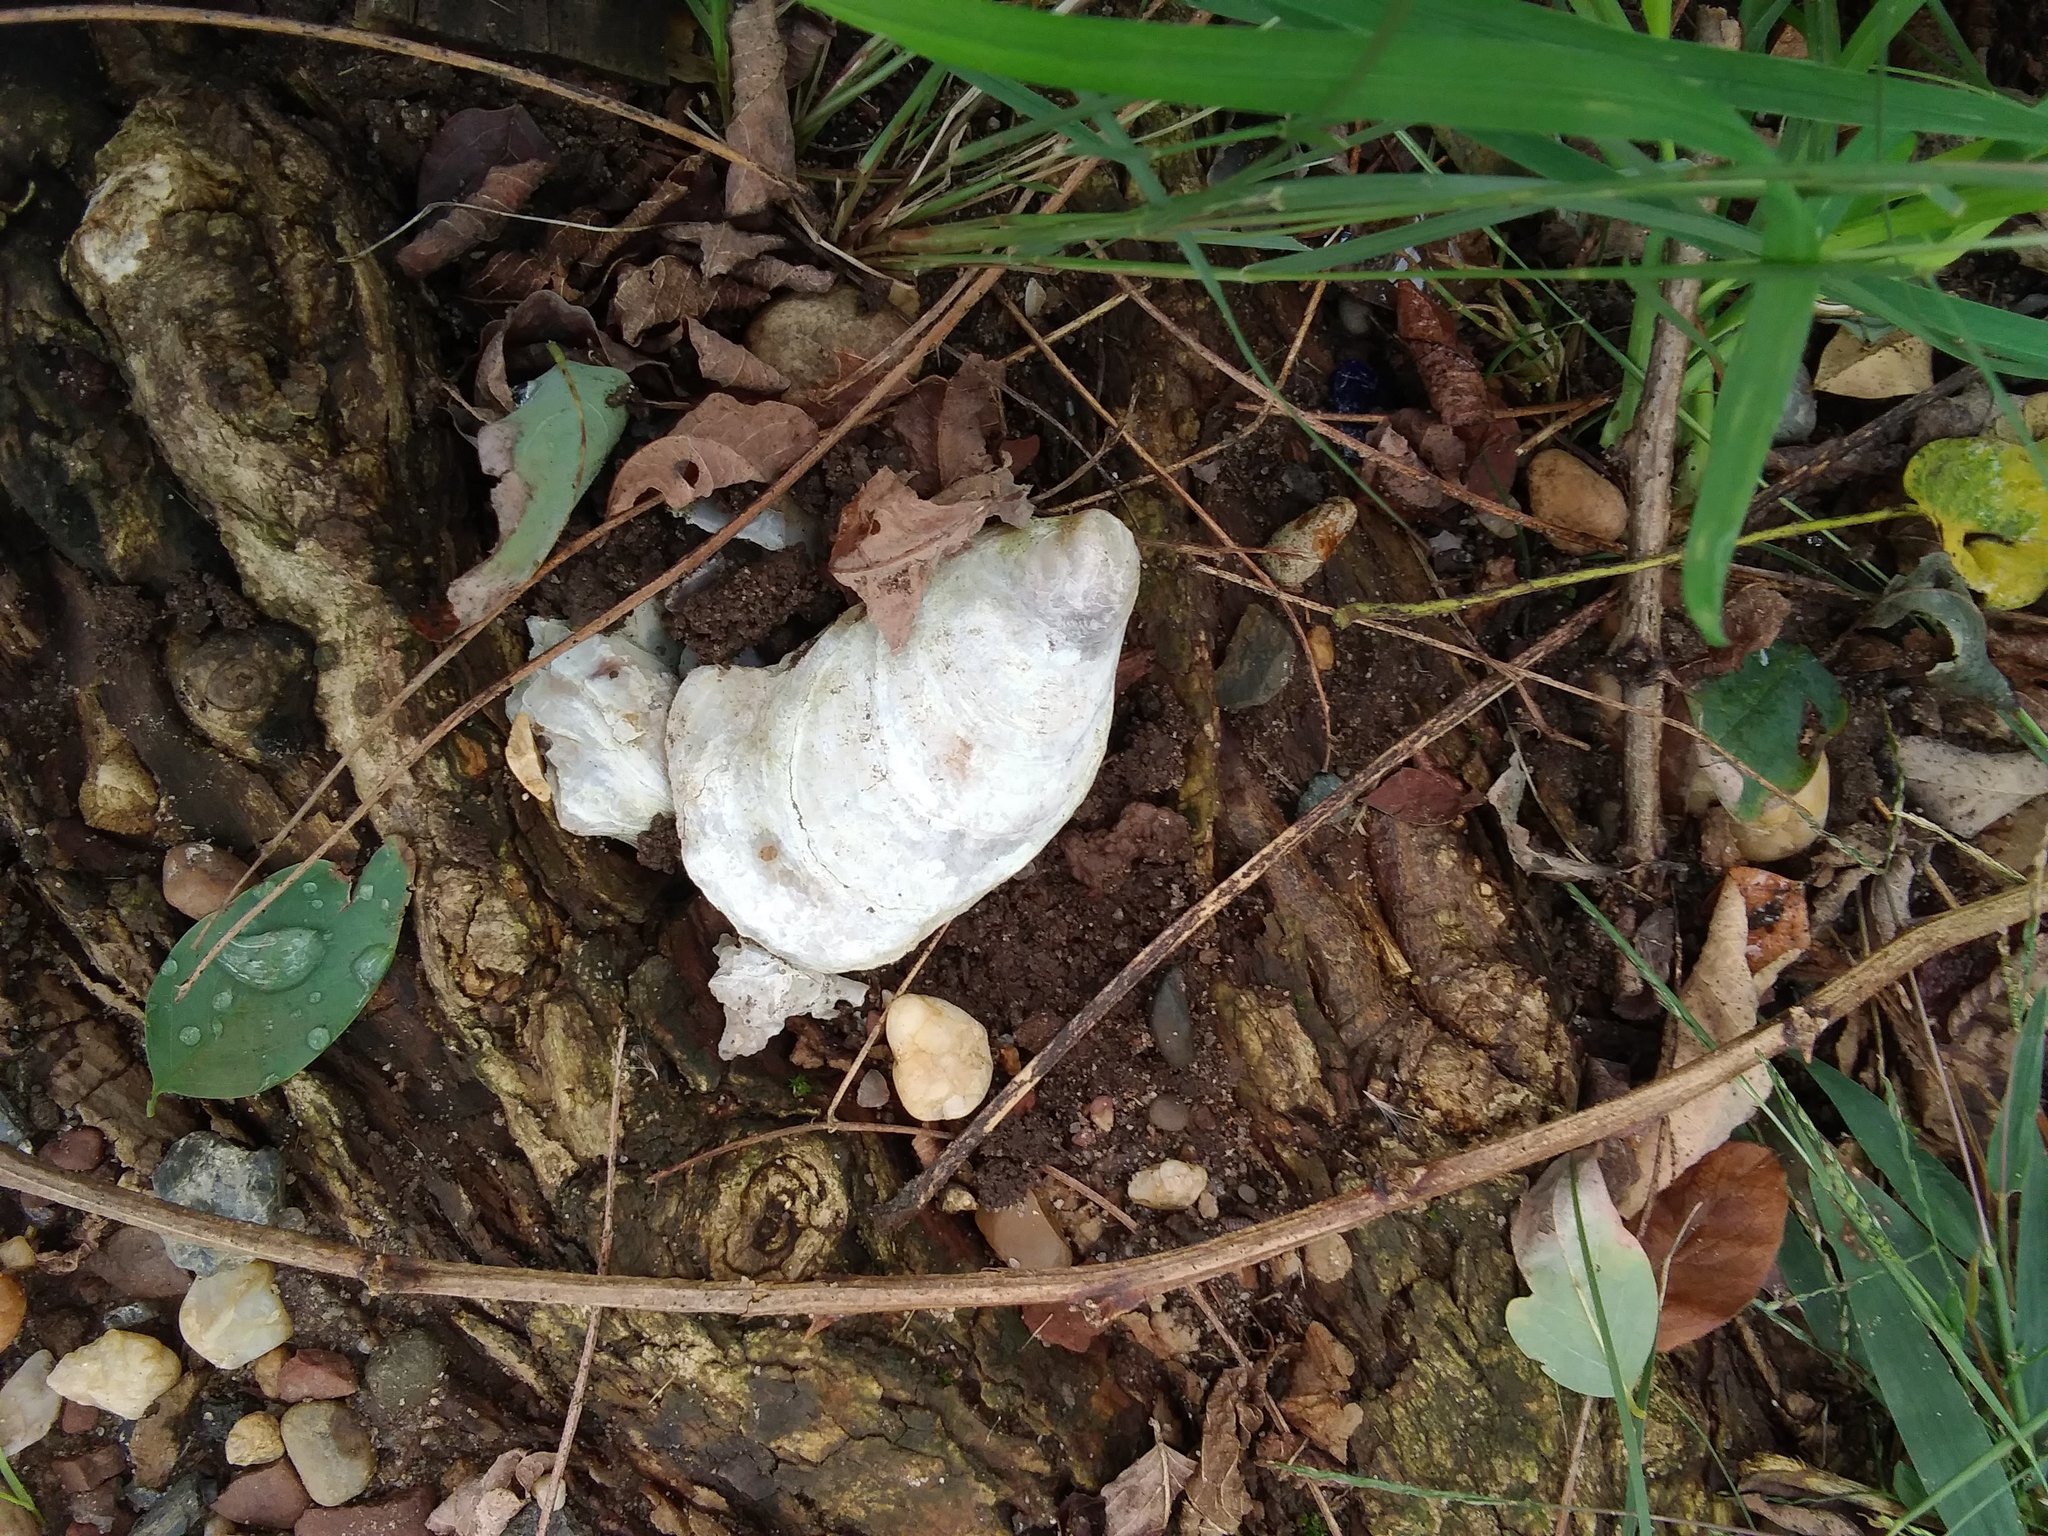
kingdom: Animalia
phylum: Mollusca
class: Bivalvia
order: Ostreida
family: Ostreidae
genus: Crassostrea
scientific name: Crassostrea virginica
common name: American oyster
